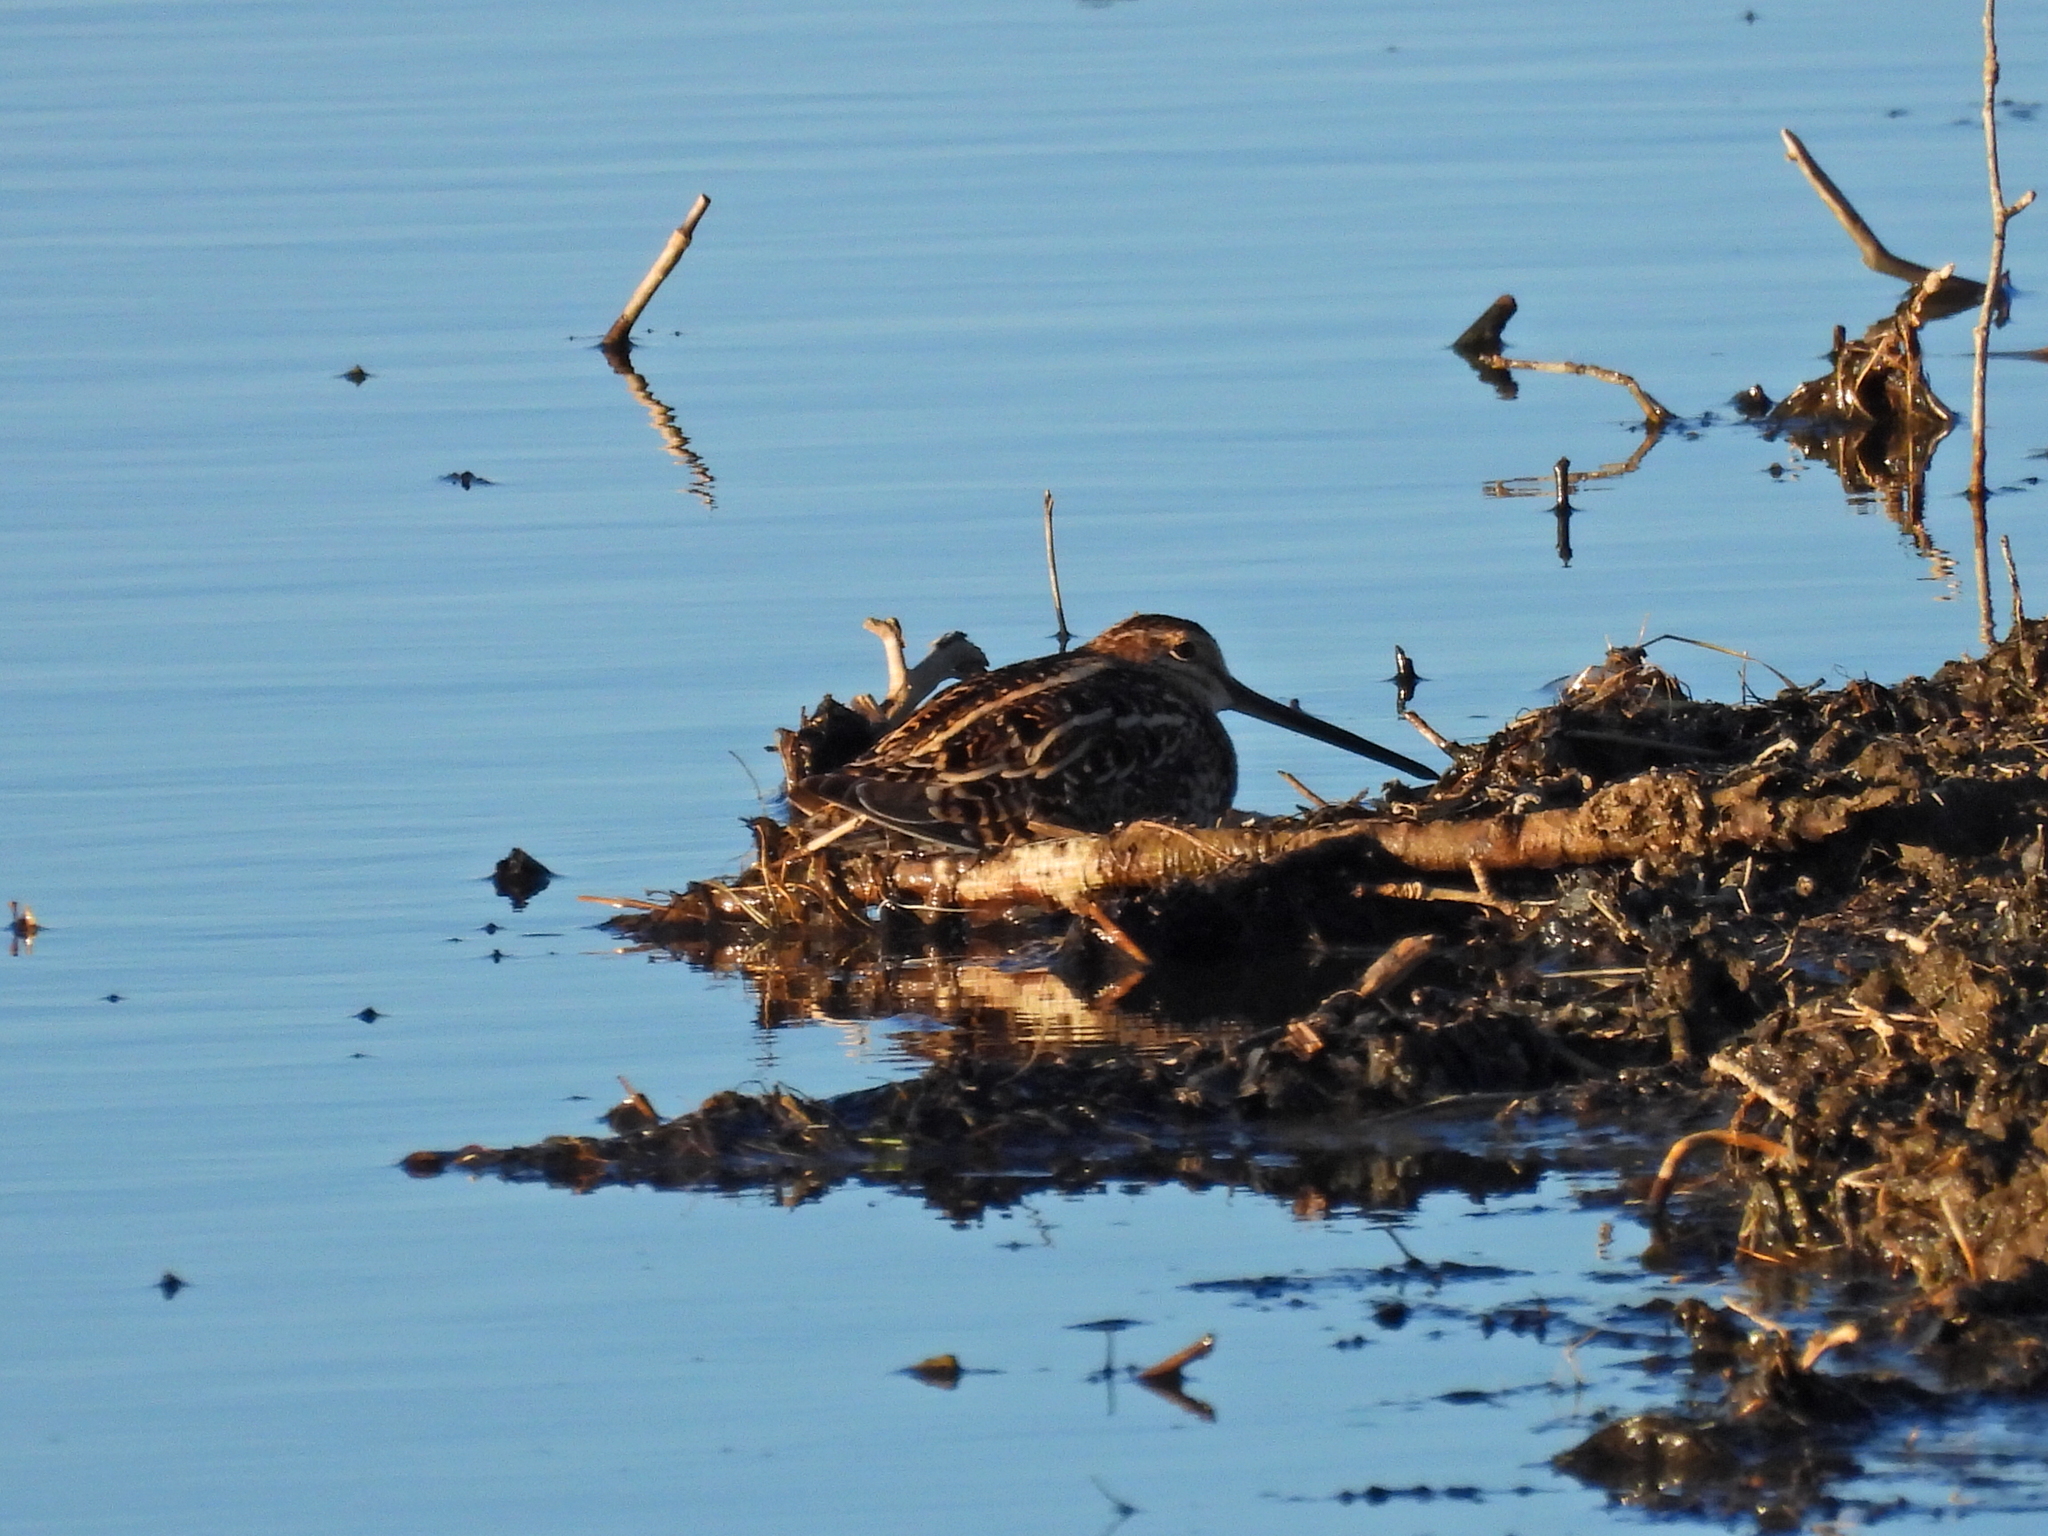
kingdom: Animalia
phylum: Chordata
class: Aves
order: Charadriiformes
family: Scolopacidae
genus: Gallinago
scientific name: Gallinago delicata
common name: Wilson's snipe
